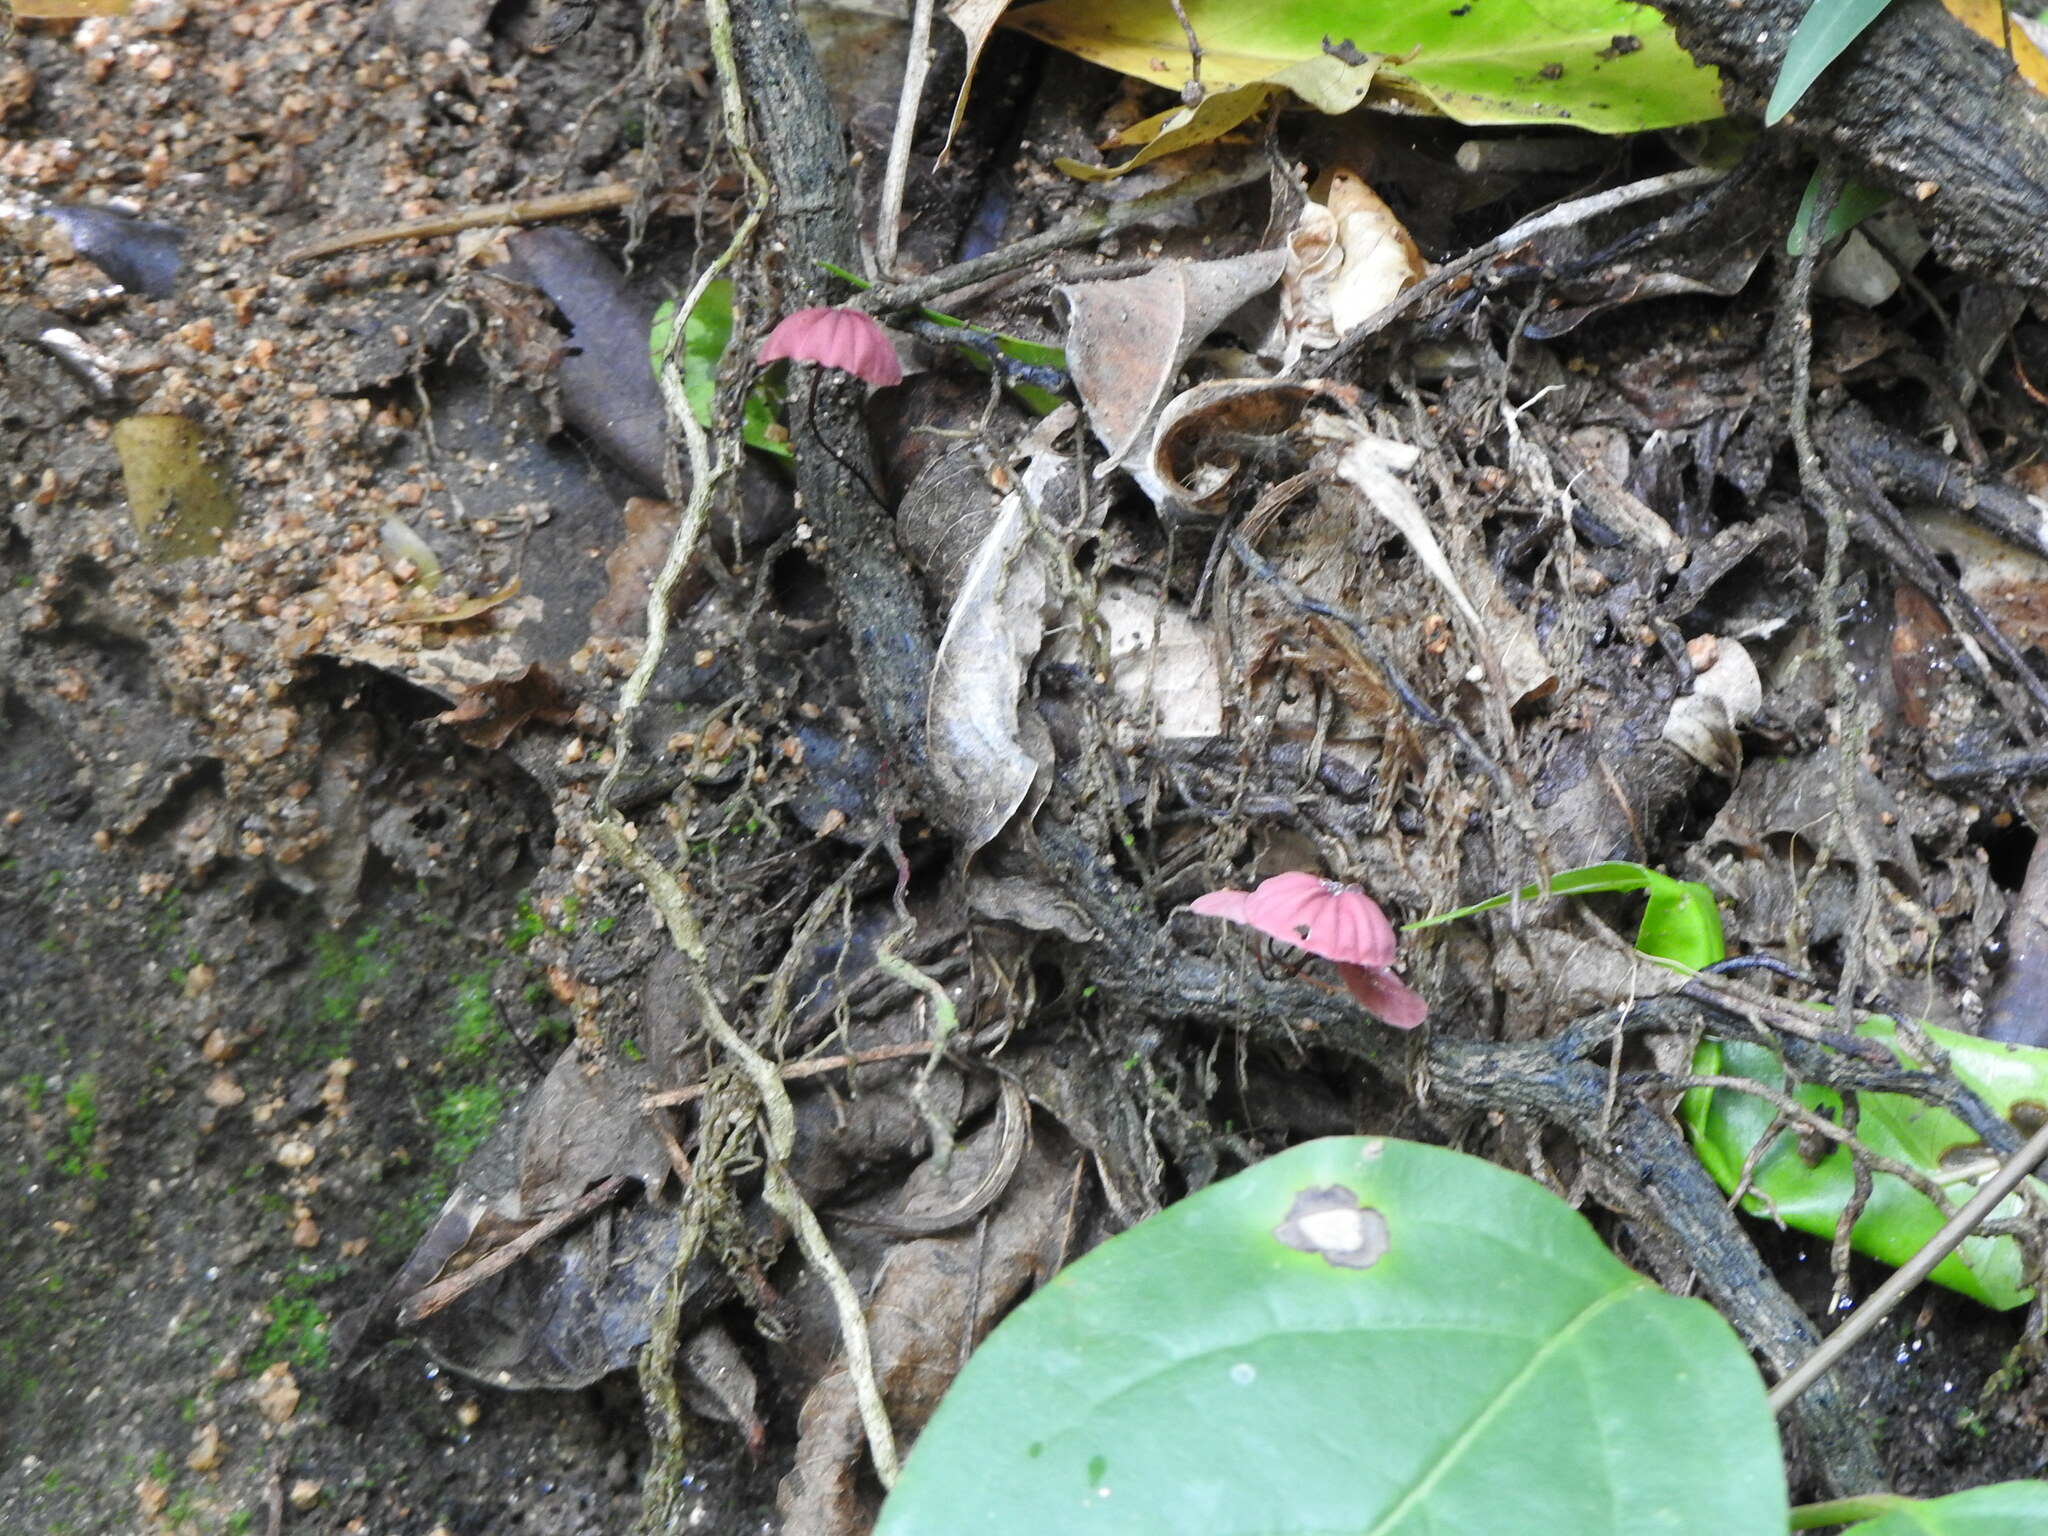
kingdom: Fungi
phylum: Basidiomycota
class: Agaricomycetes
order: Agaricales
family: Marasmiaceae
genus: Marasmius
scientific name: Marasmius haematocephalus
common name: Purple pinwheel
